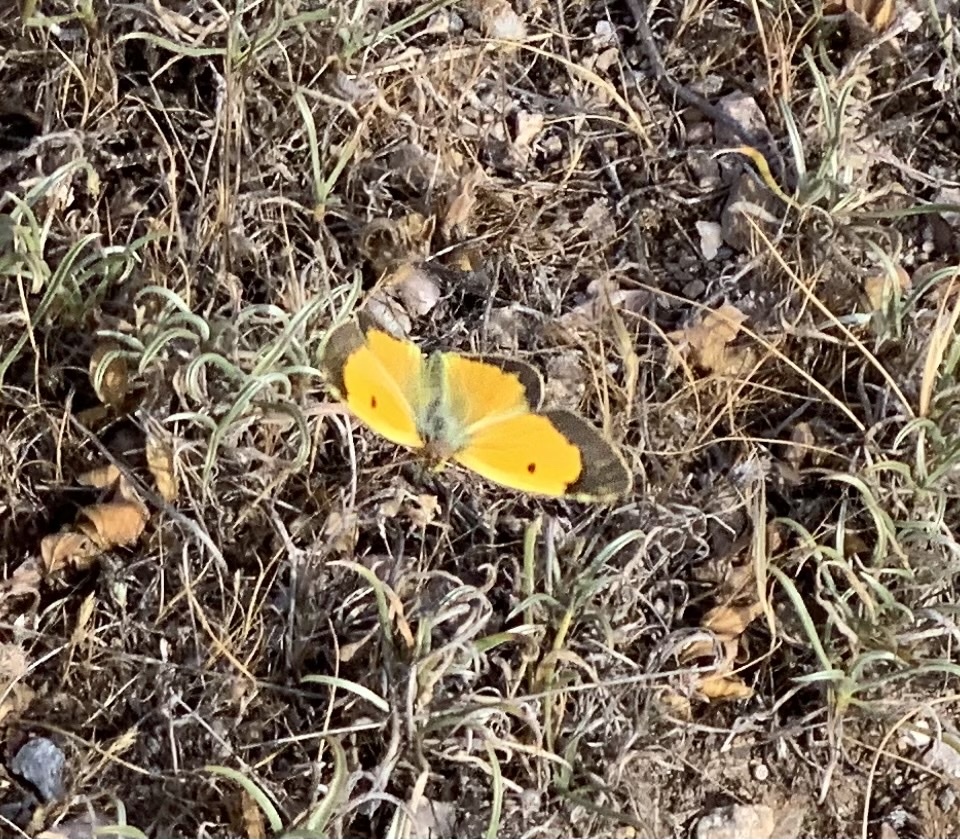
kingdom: Animalia
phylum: Arthropoda
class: Insecta
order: Lepidoptera
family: Pieridae
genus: Colias
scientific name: Colias croceus
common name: Clouded yellow
